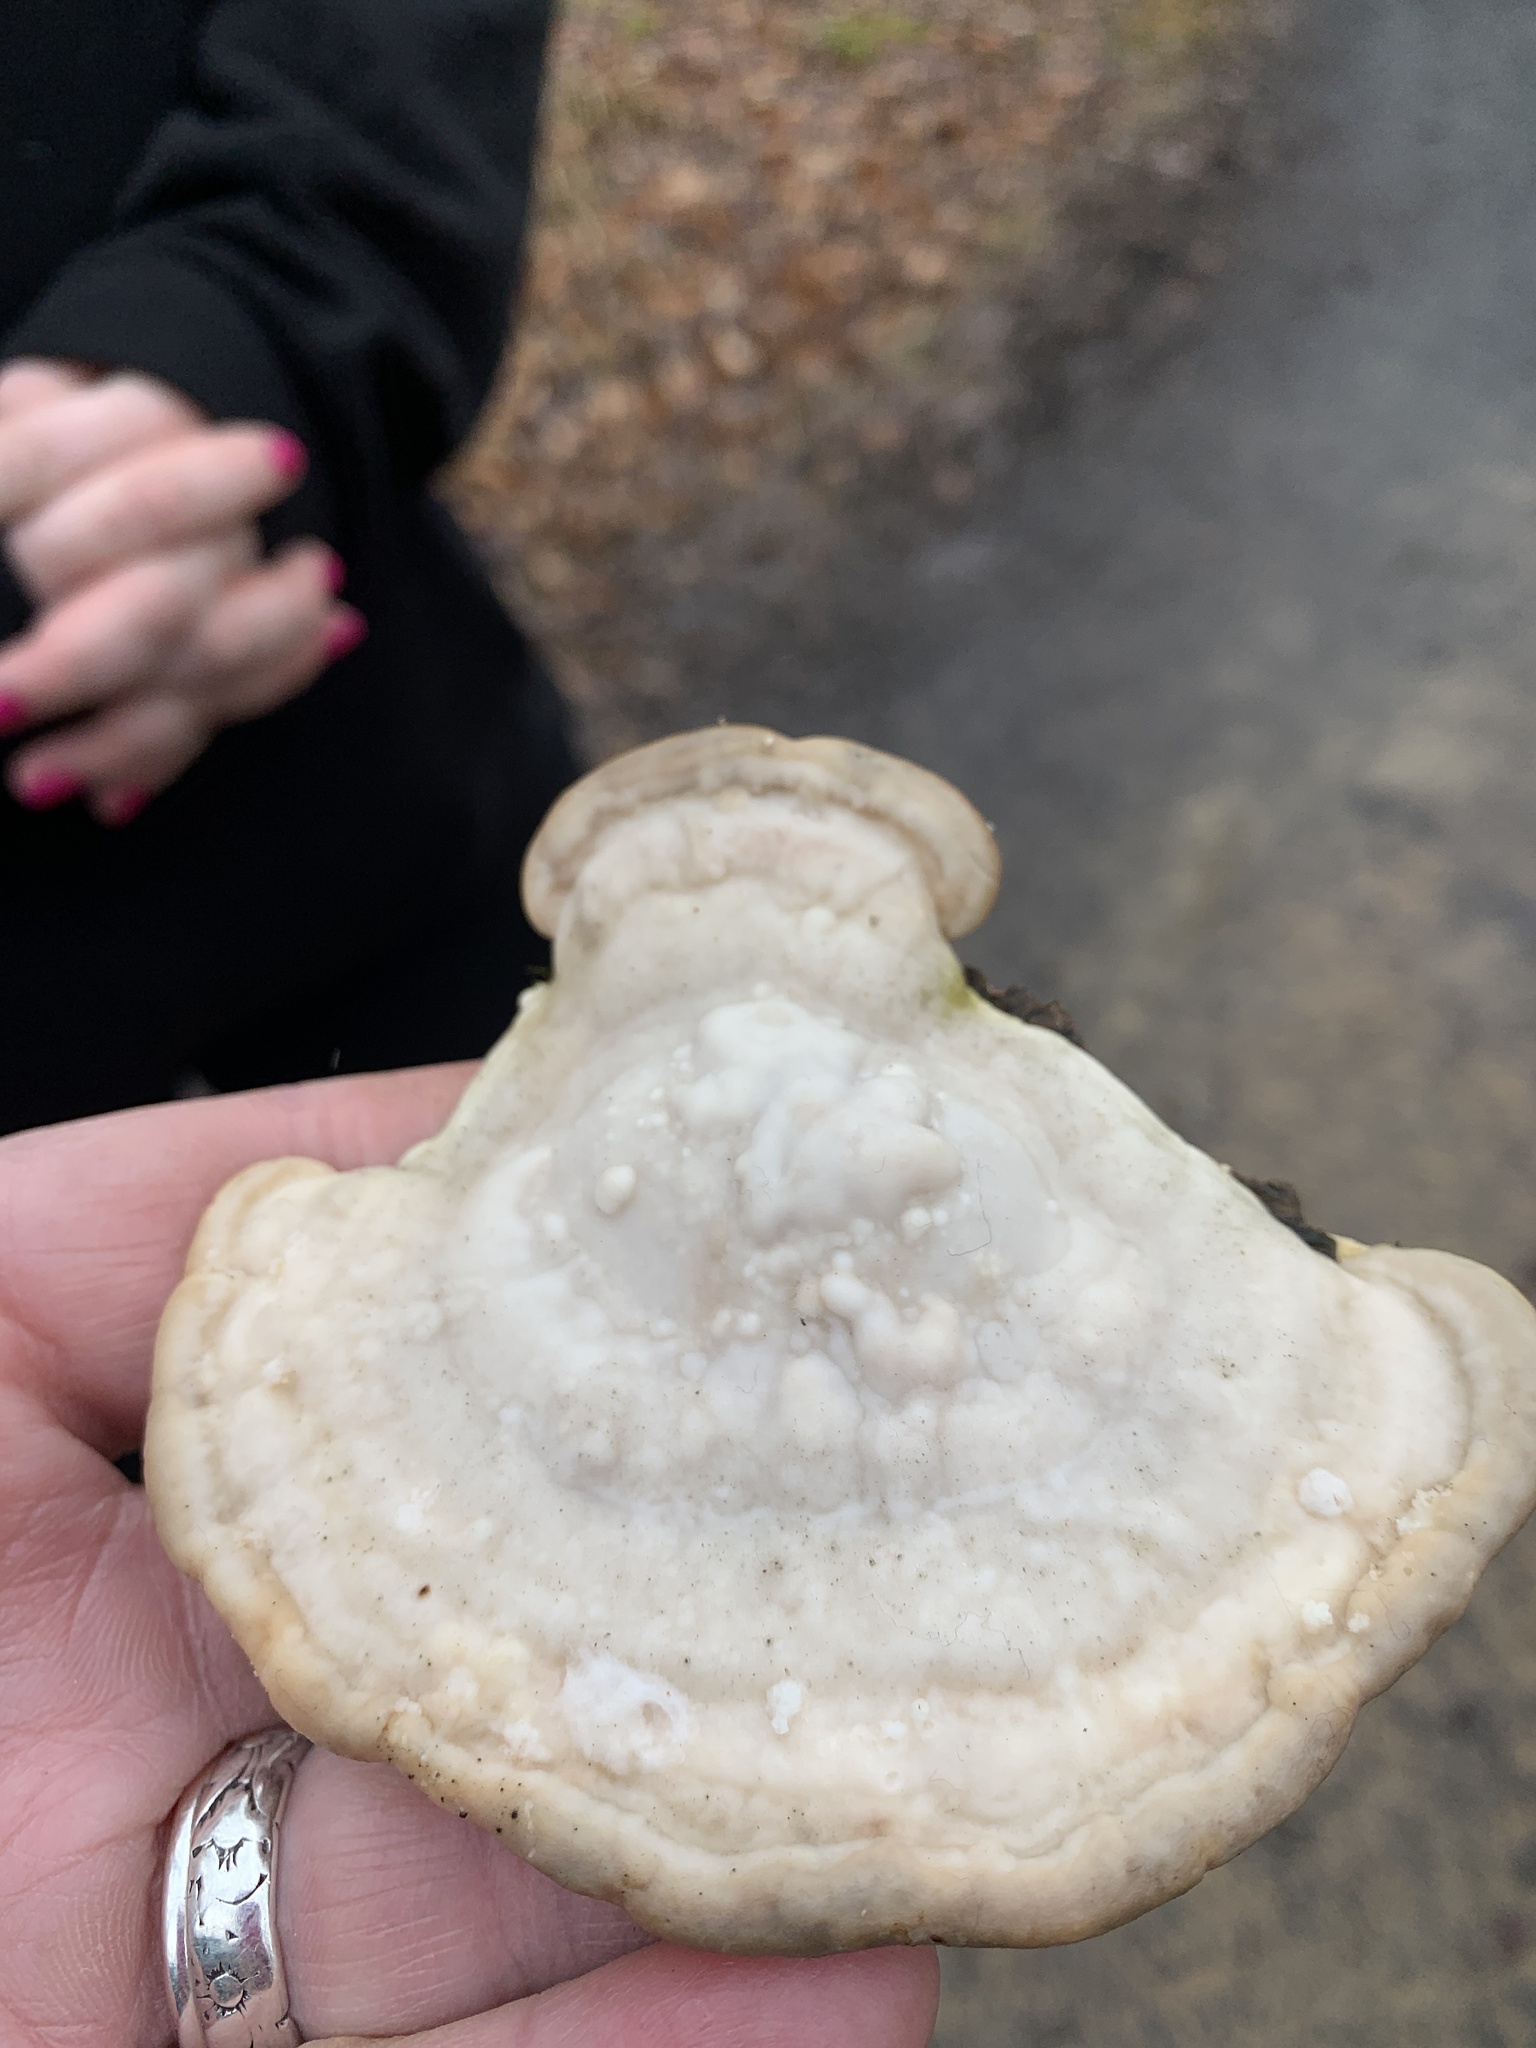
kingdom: Fungi
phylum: Basidiomycota
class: Agaricomycetes
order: Polyporales
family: Polyporaceae
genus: Trametes
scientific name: Trametes gibbosa
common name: Lumpy bracket
